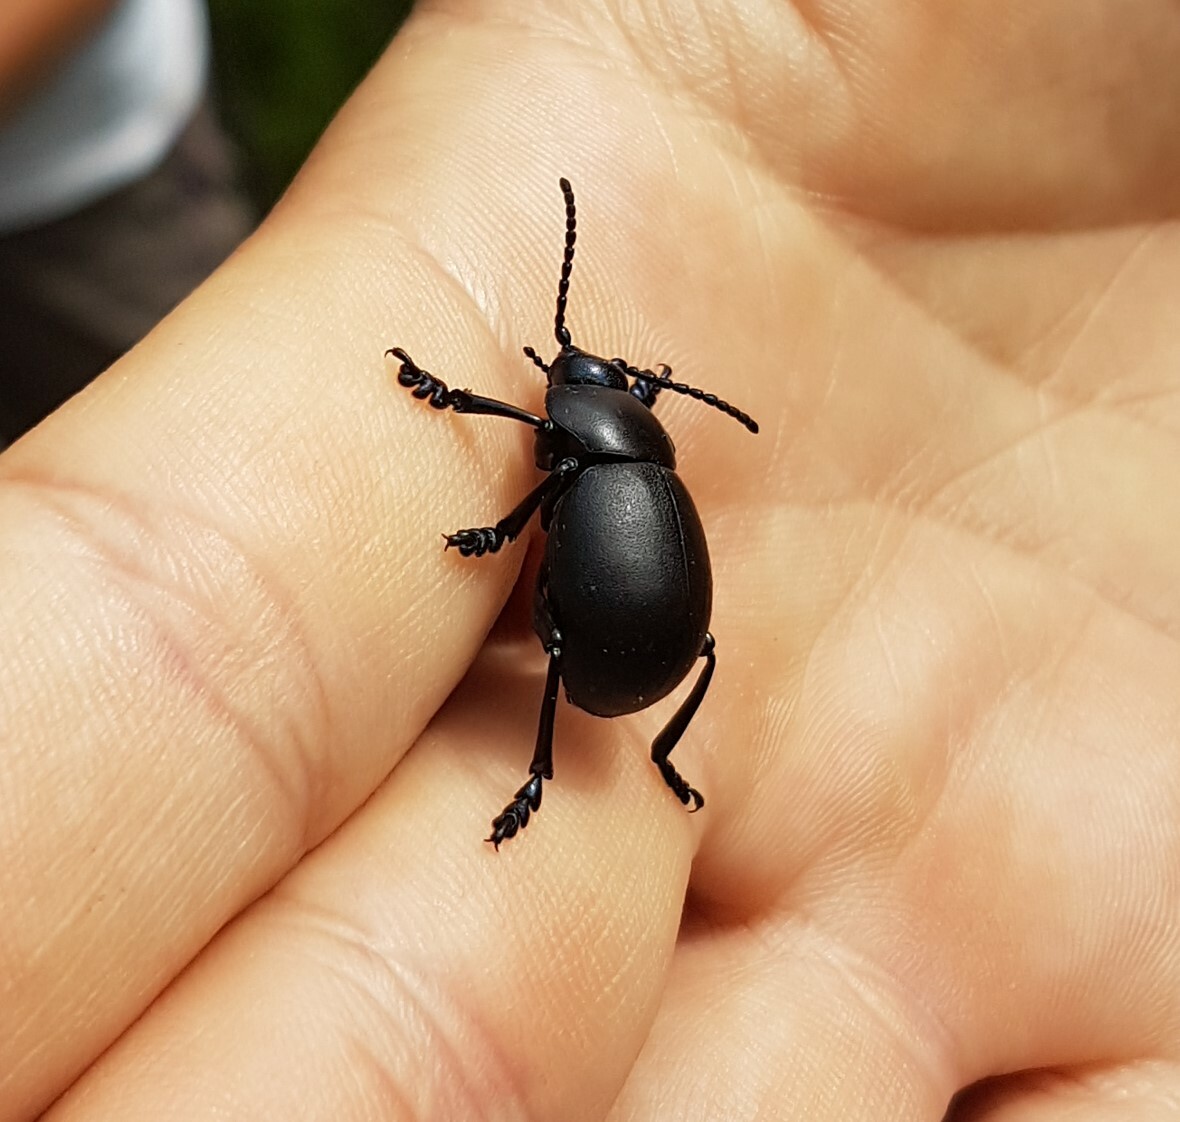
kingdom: Animalia
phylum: Arthropoda
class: Insecta
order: Coleoptera
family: Chrysomelidae
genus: Timarcha
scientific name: Timarcha tenebricosa
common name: Bloody-nosed beetle
